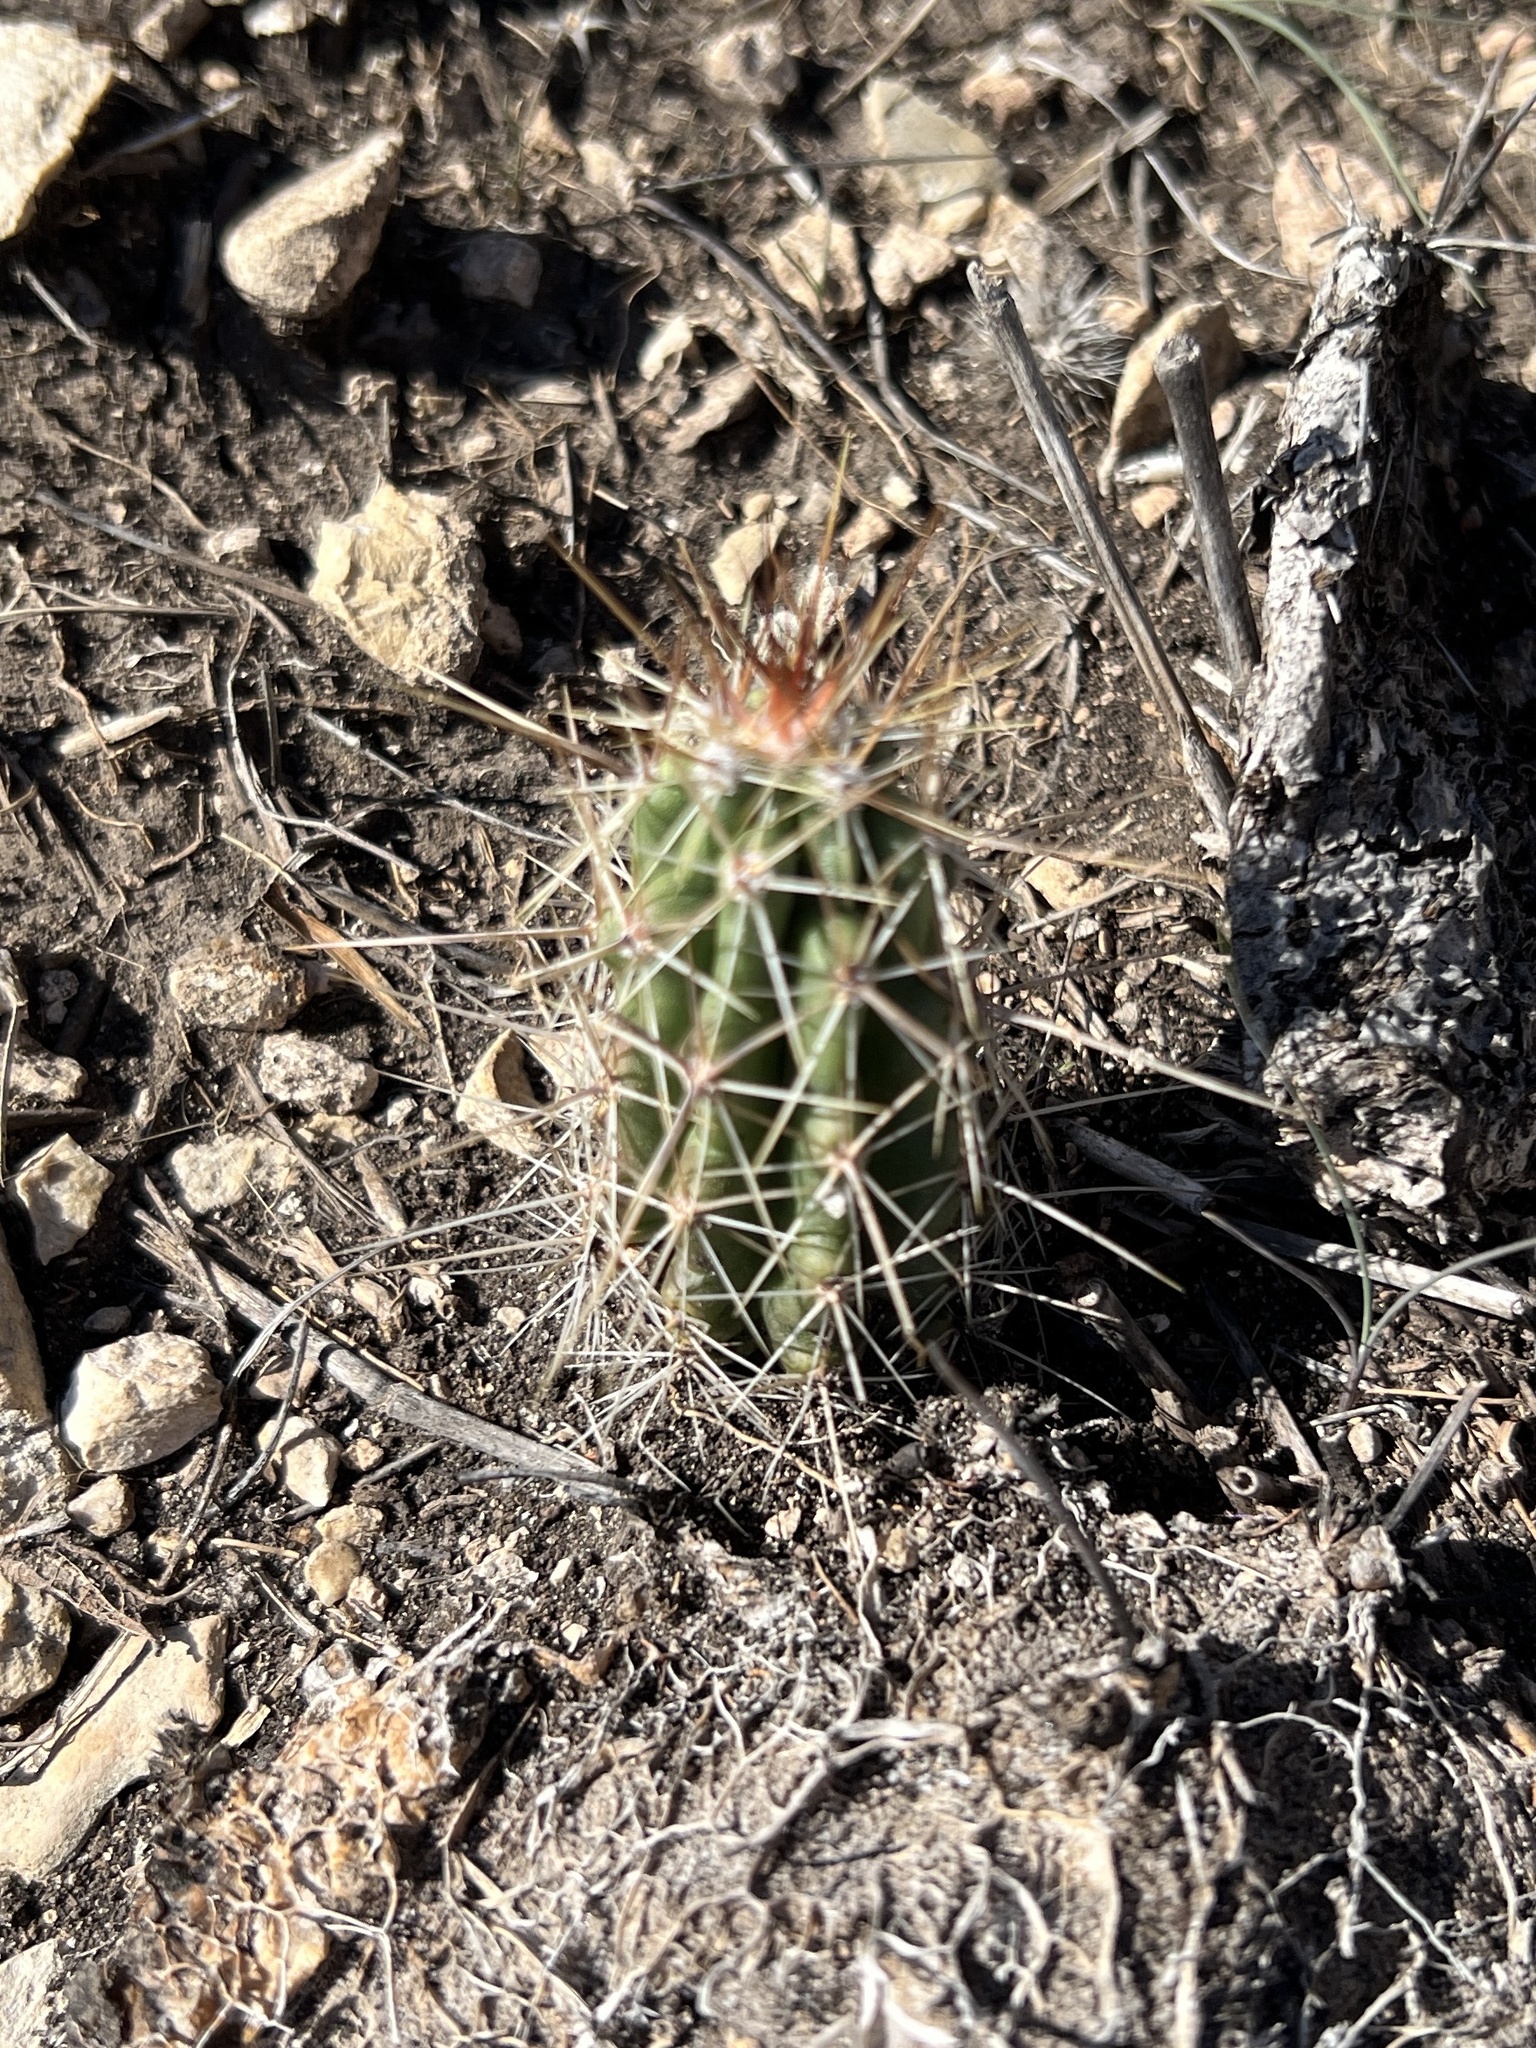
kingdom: Plantae
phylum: Tracheophyta
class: Magnoliopsida
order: Caryophyllales
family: Cactaceae
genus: Echinocereus
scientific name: Echinocereus enneacanthus
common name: Pitaya
